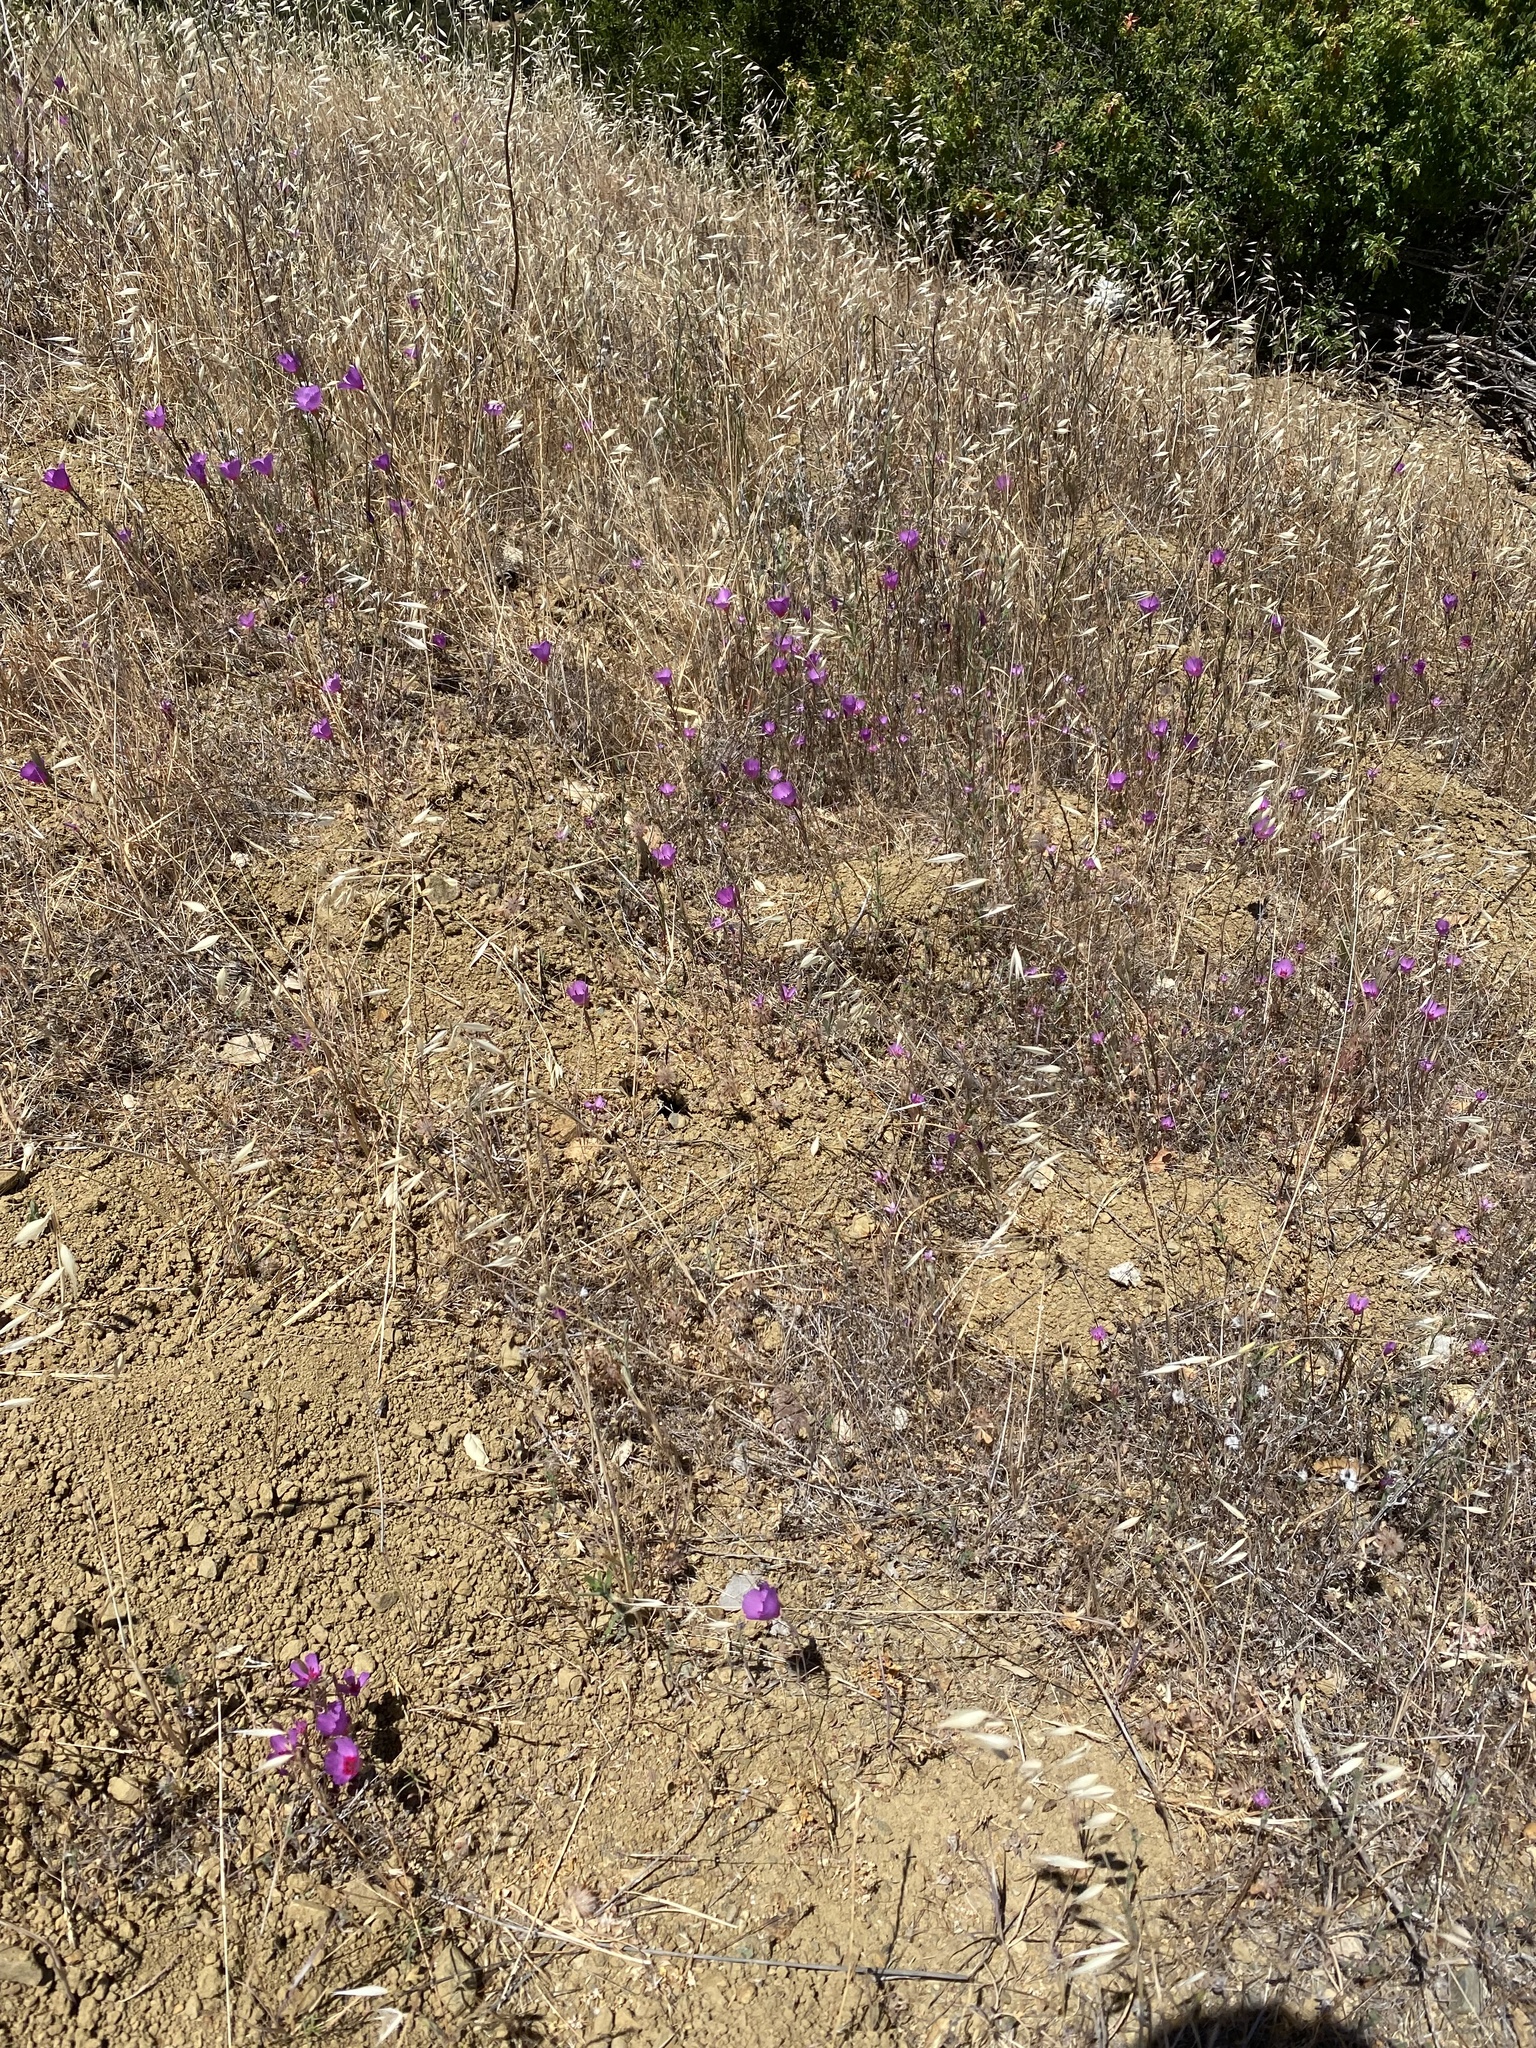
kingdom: Plantae
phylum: Tracheophyta
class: Magnoliopsida
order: Myrtales
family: Onagraceae
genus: Clarkia
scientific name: Clarkia rubicunda
